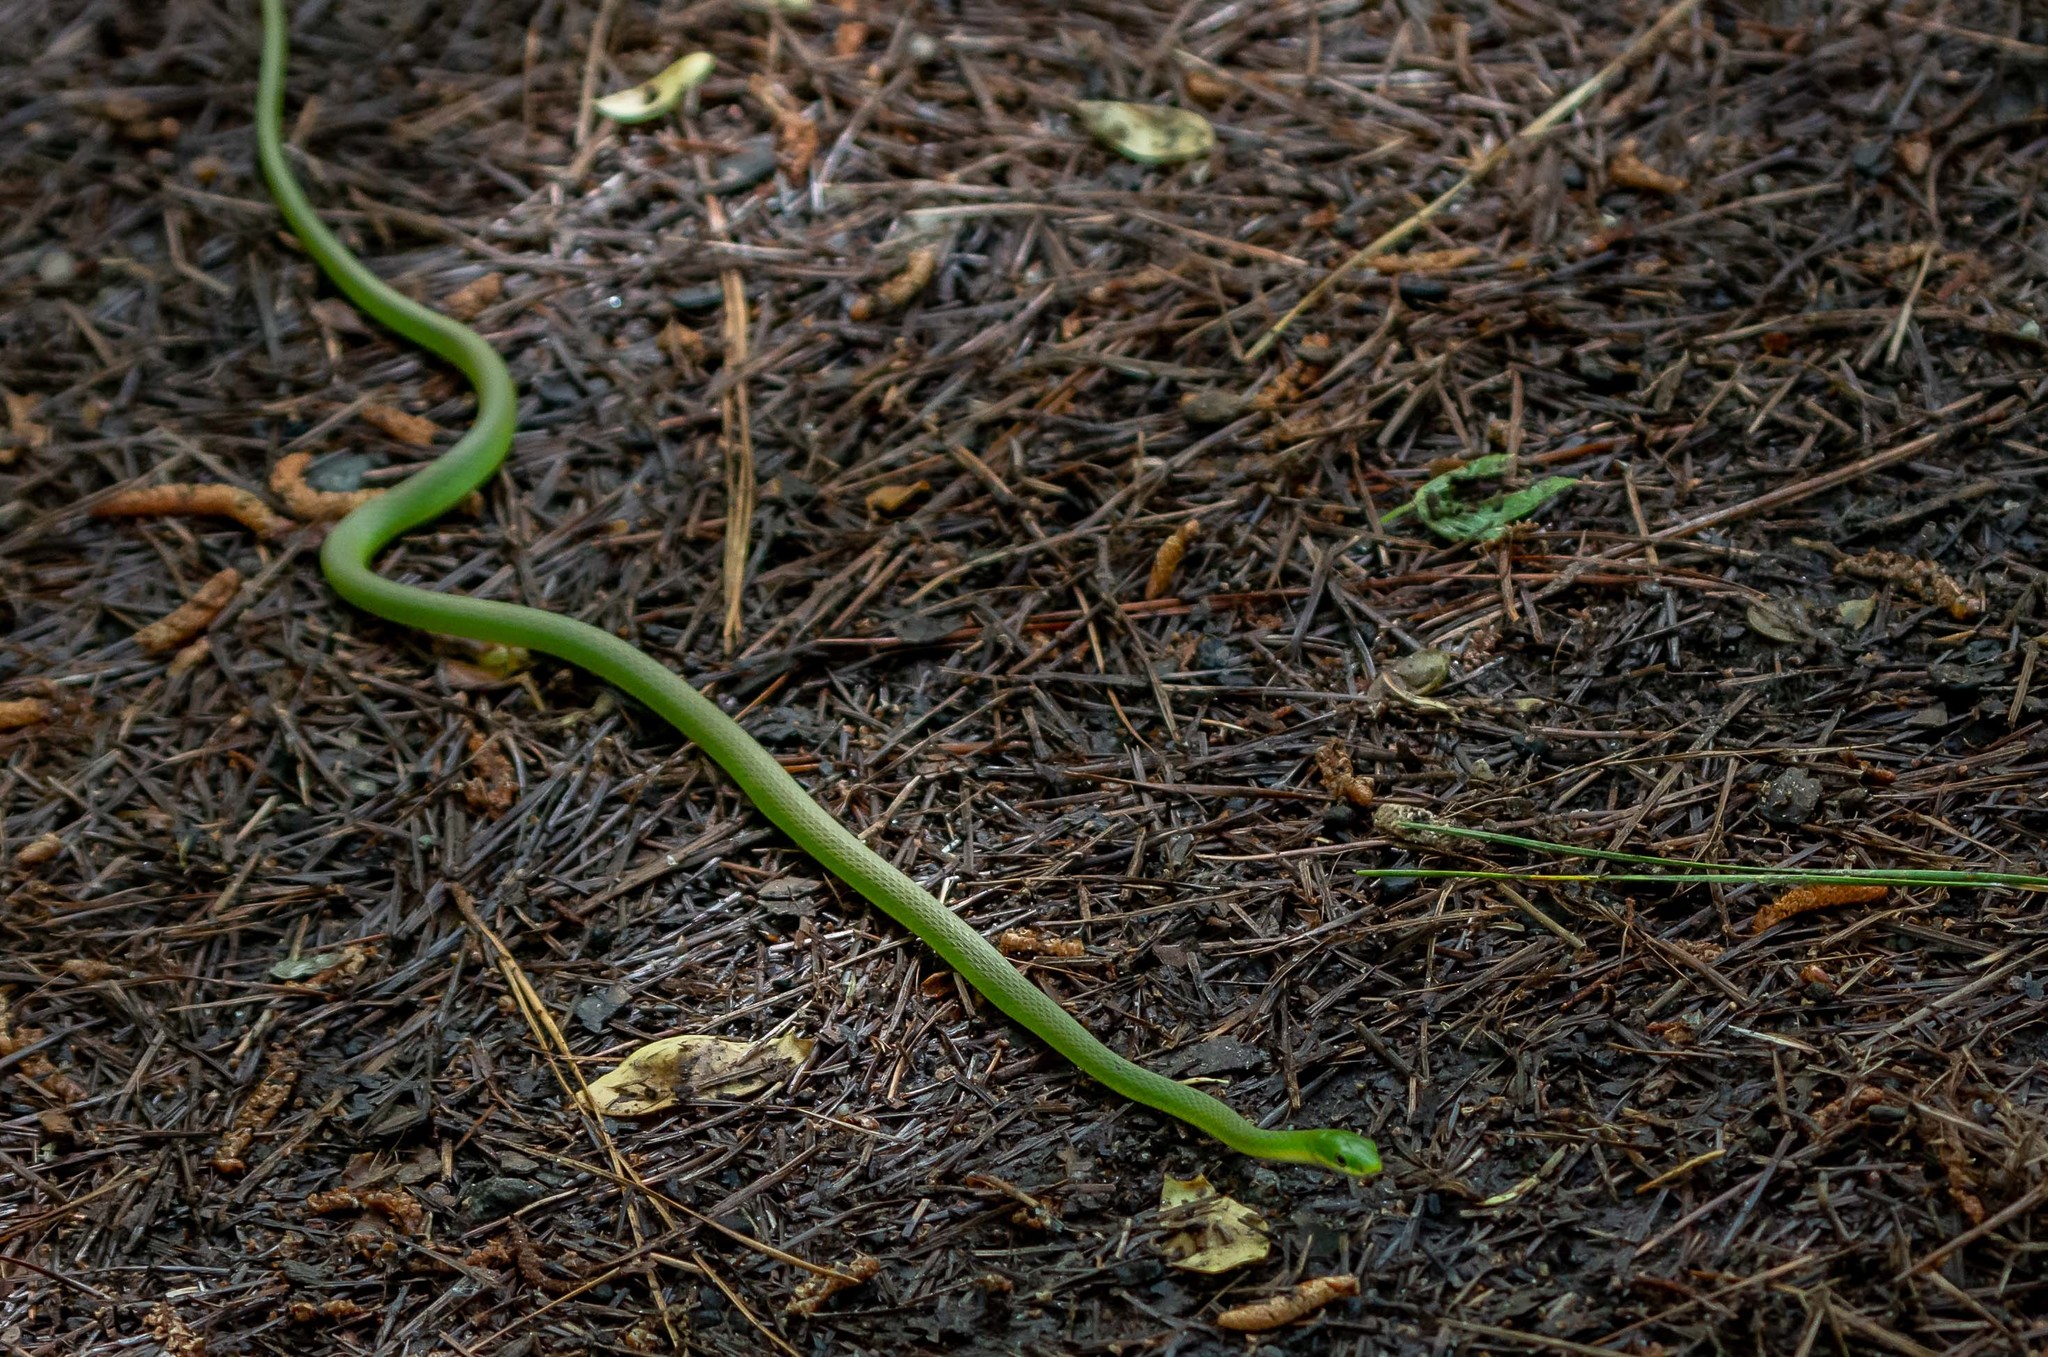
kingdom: Animalia
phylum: Chordata
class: Squamata
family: Colubridae
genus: Opheodrys
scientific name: Opheodrys aestivus
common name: Rough greensnake
